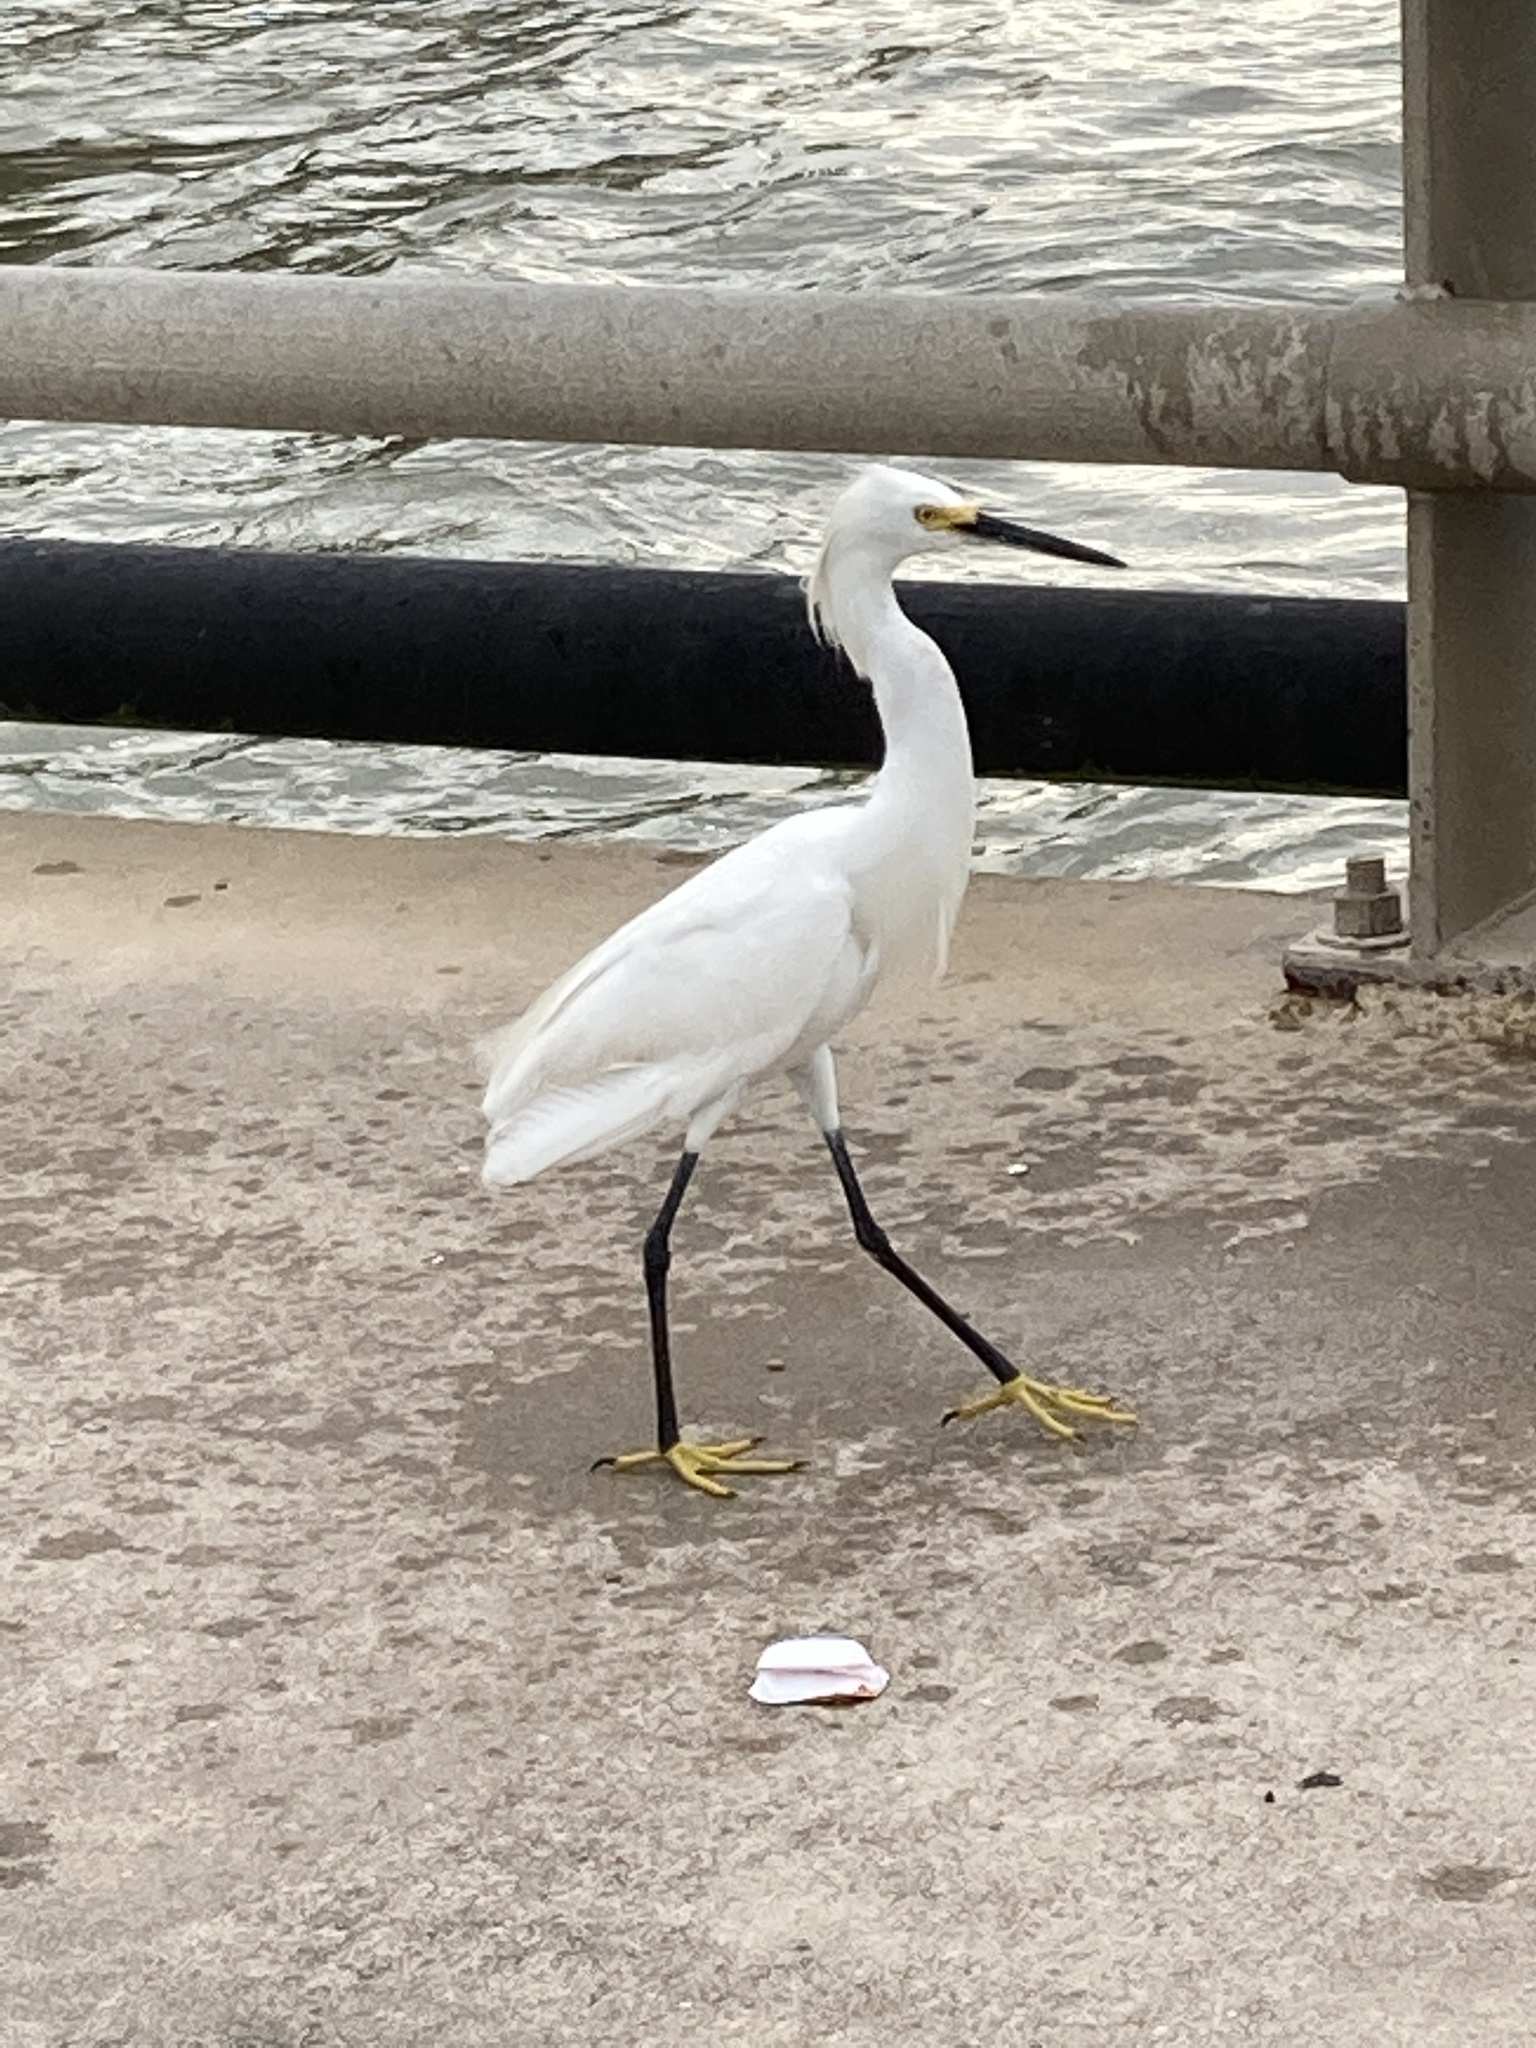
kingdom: Animalia
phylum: Chordata
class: Aves
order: Pelecaniformes
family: Ardeidae
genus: Egretta
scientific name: Egretta thula
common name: Snowy egret
